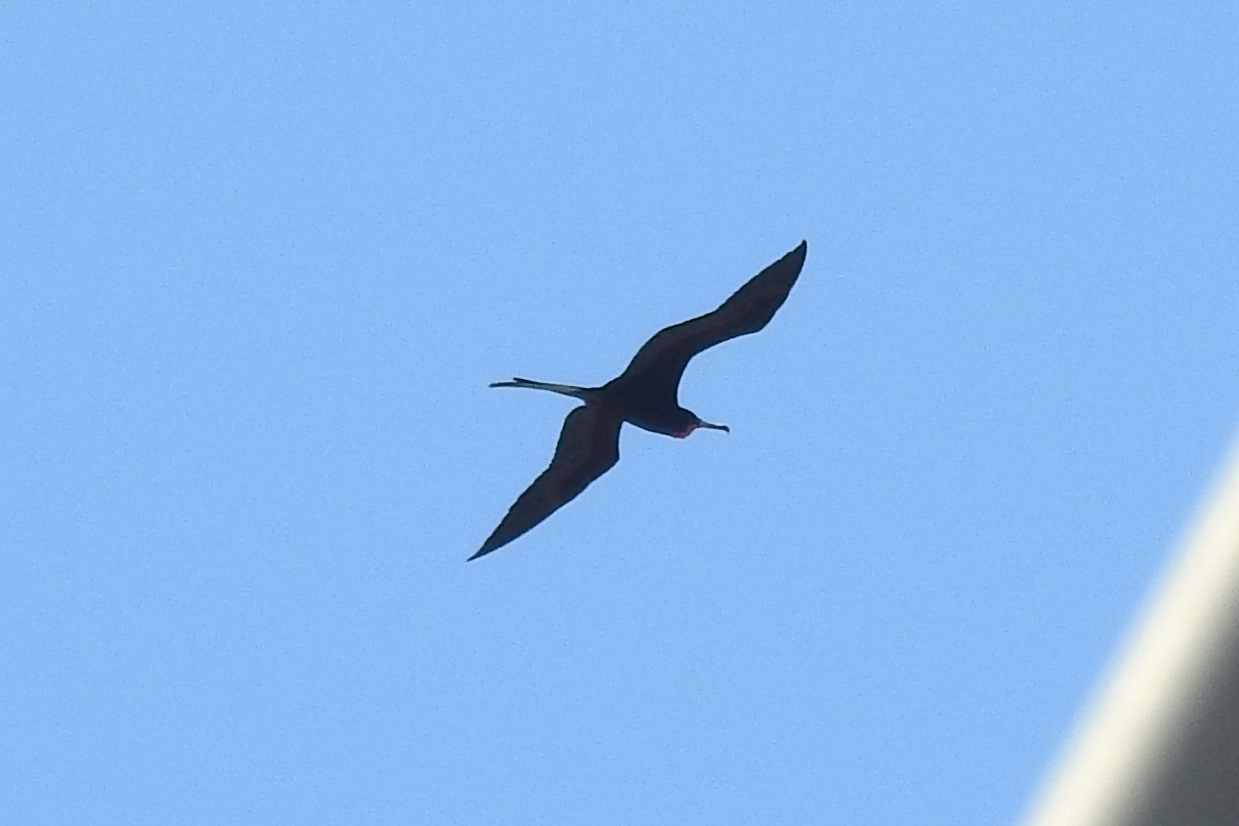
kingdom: Animalia
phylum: Chordata
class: Aves
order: Suliformes
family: Fregatidae
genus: Fregata
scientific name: Fregata magnificens
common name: Magnificent frigatebird
